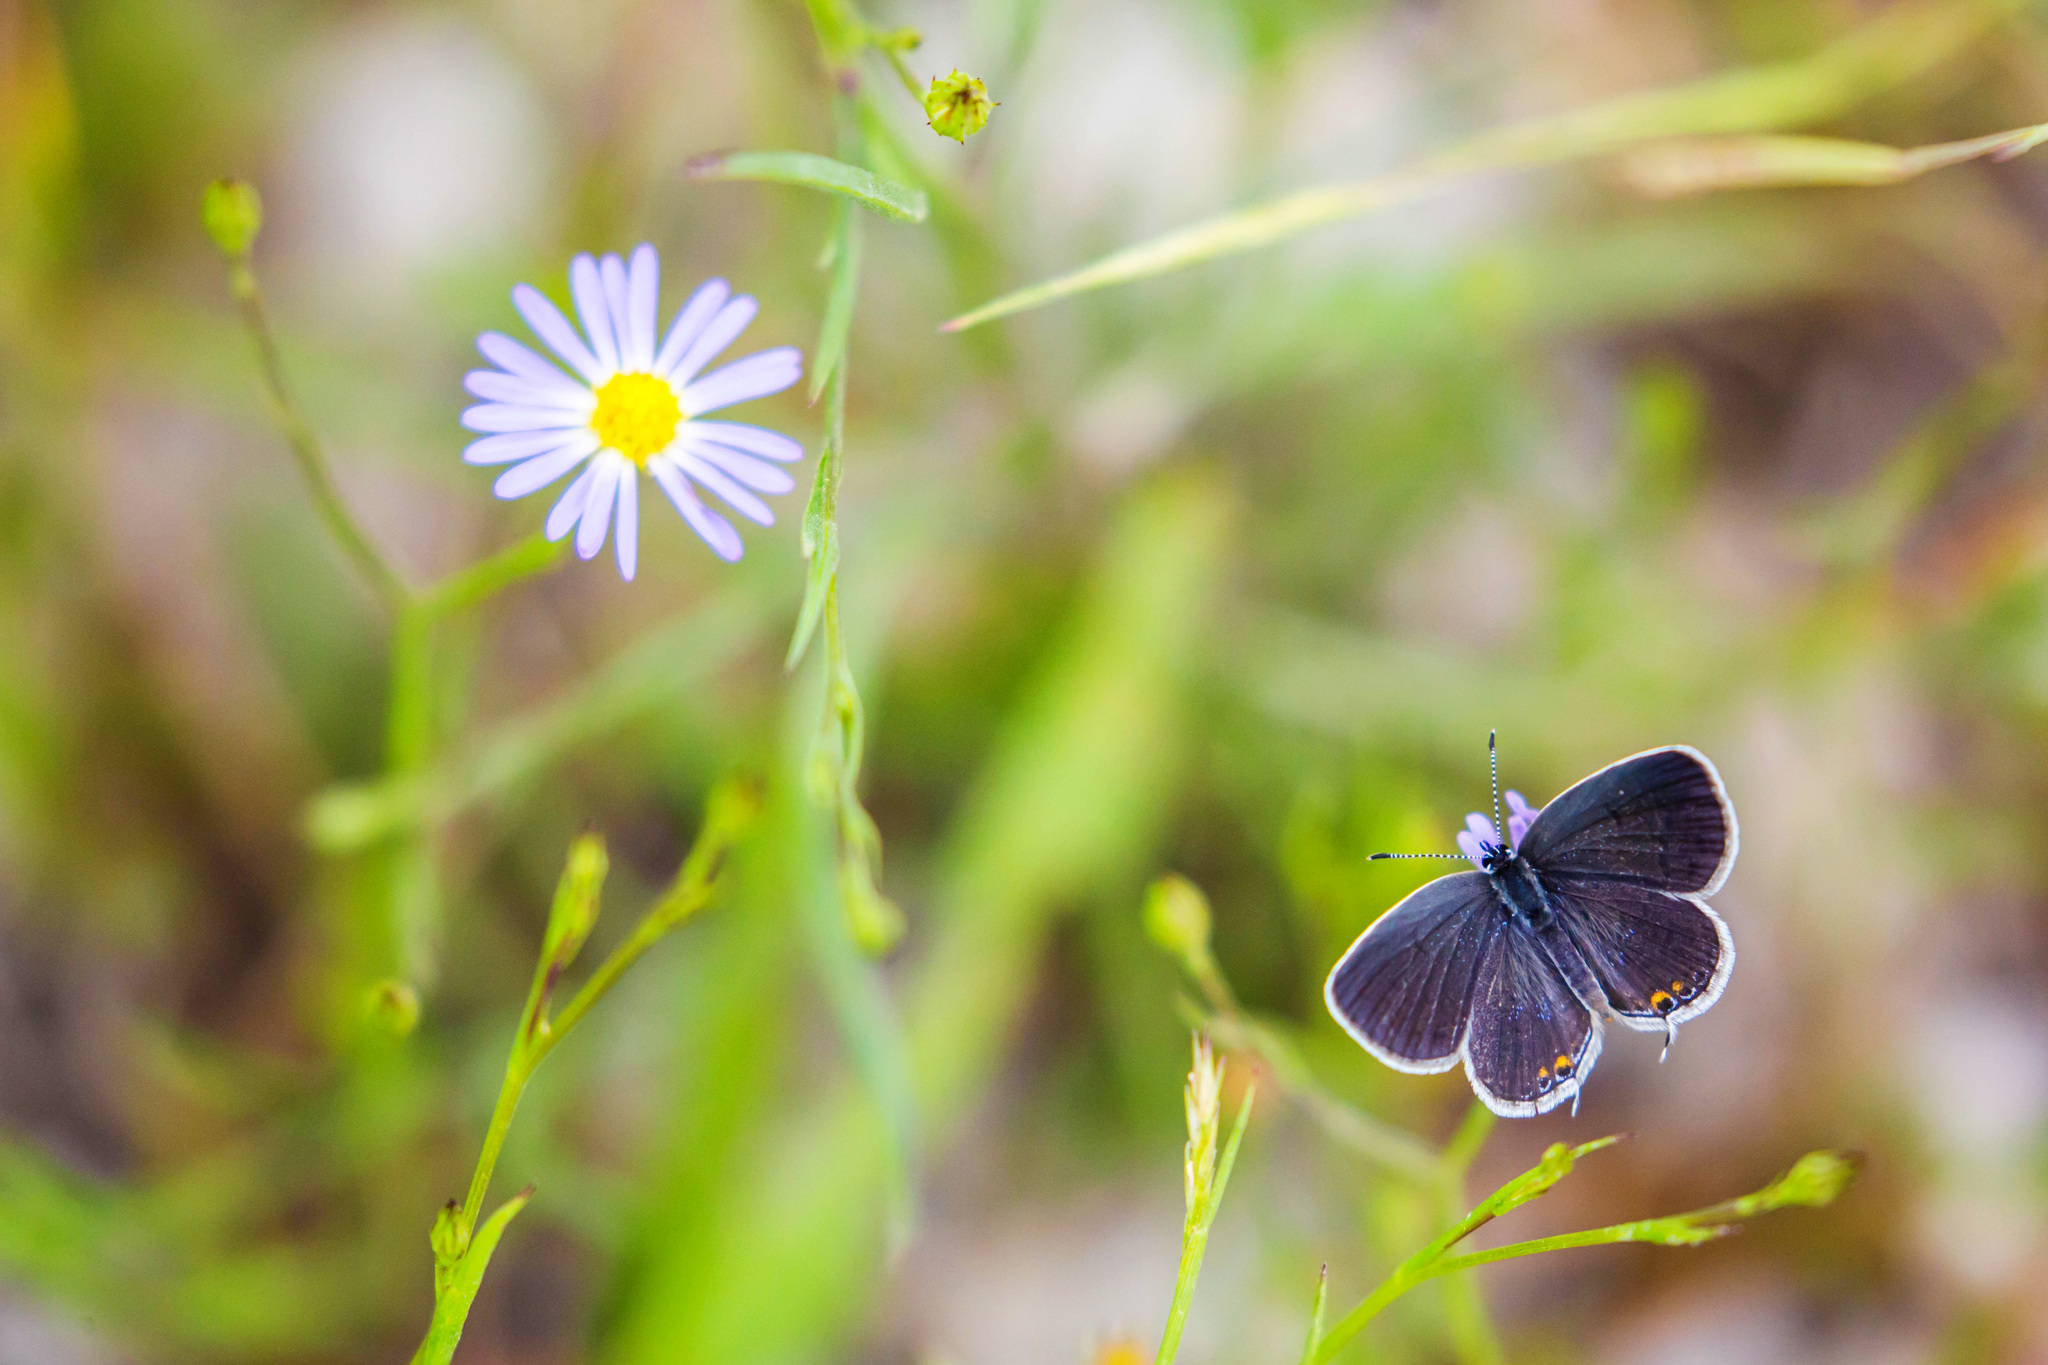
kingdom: Animalia
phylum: Arthropoda
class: Insecta
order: Lepidoptera
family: Lycaenidae
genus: Elkalyce
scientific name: Elkalyce comyntas
